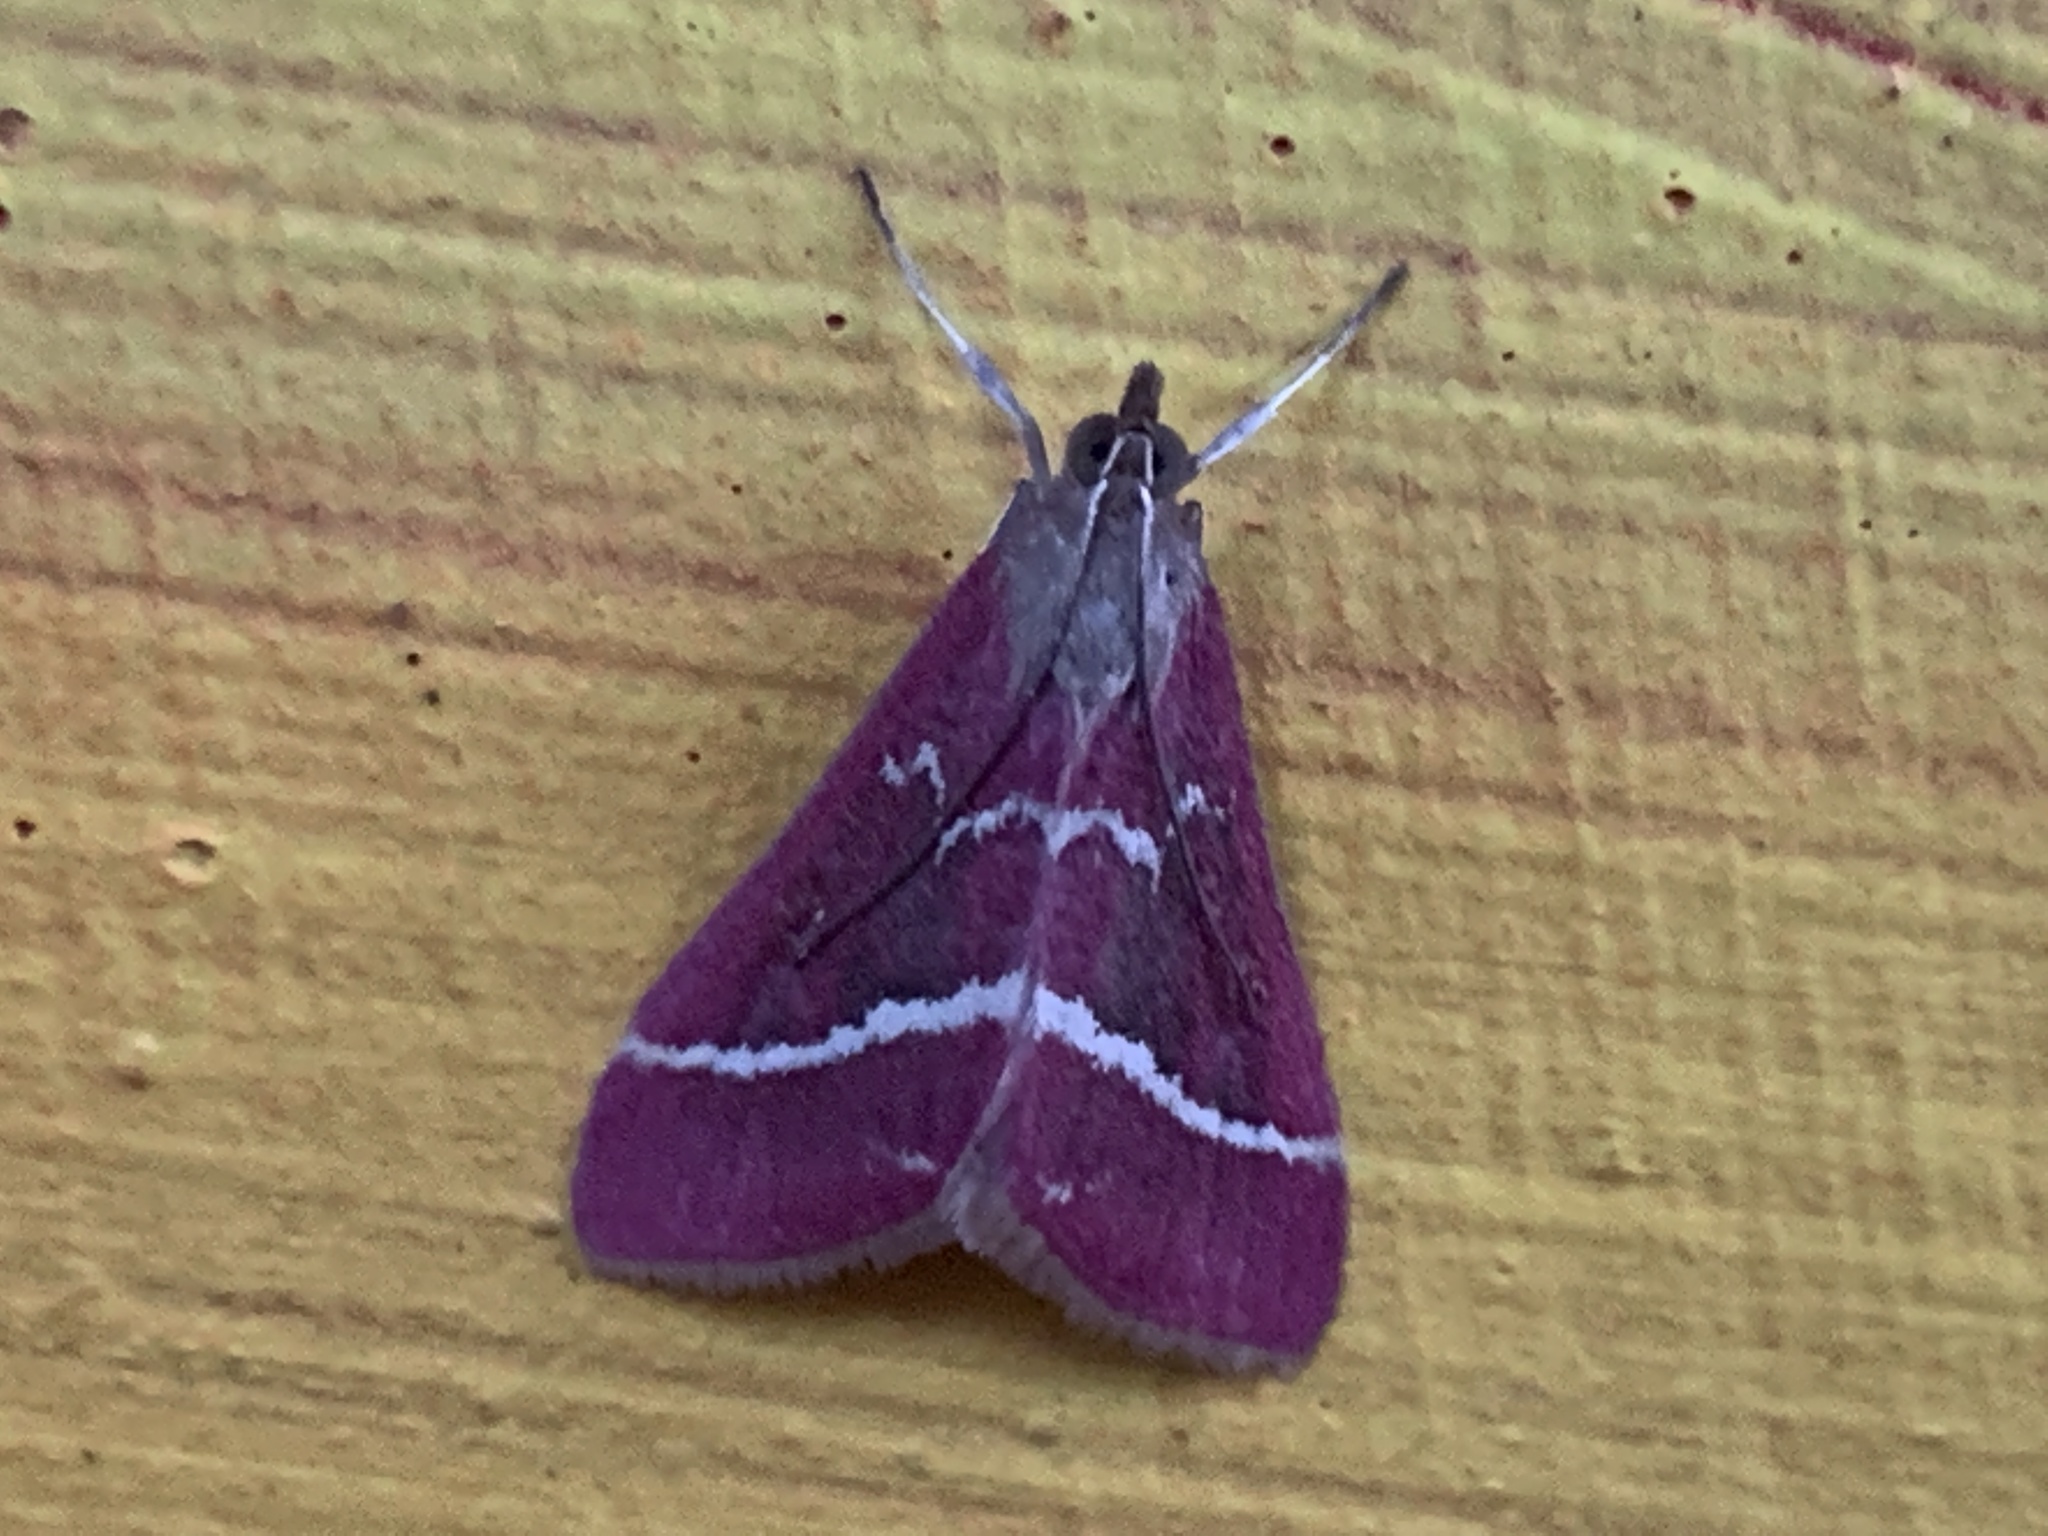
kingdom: Animalia
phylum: Arthropoda
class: Insecta
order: Lepidoptera
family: Crambidae
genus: Pyrausta
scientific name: Pyrausta volupialis
